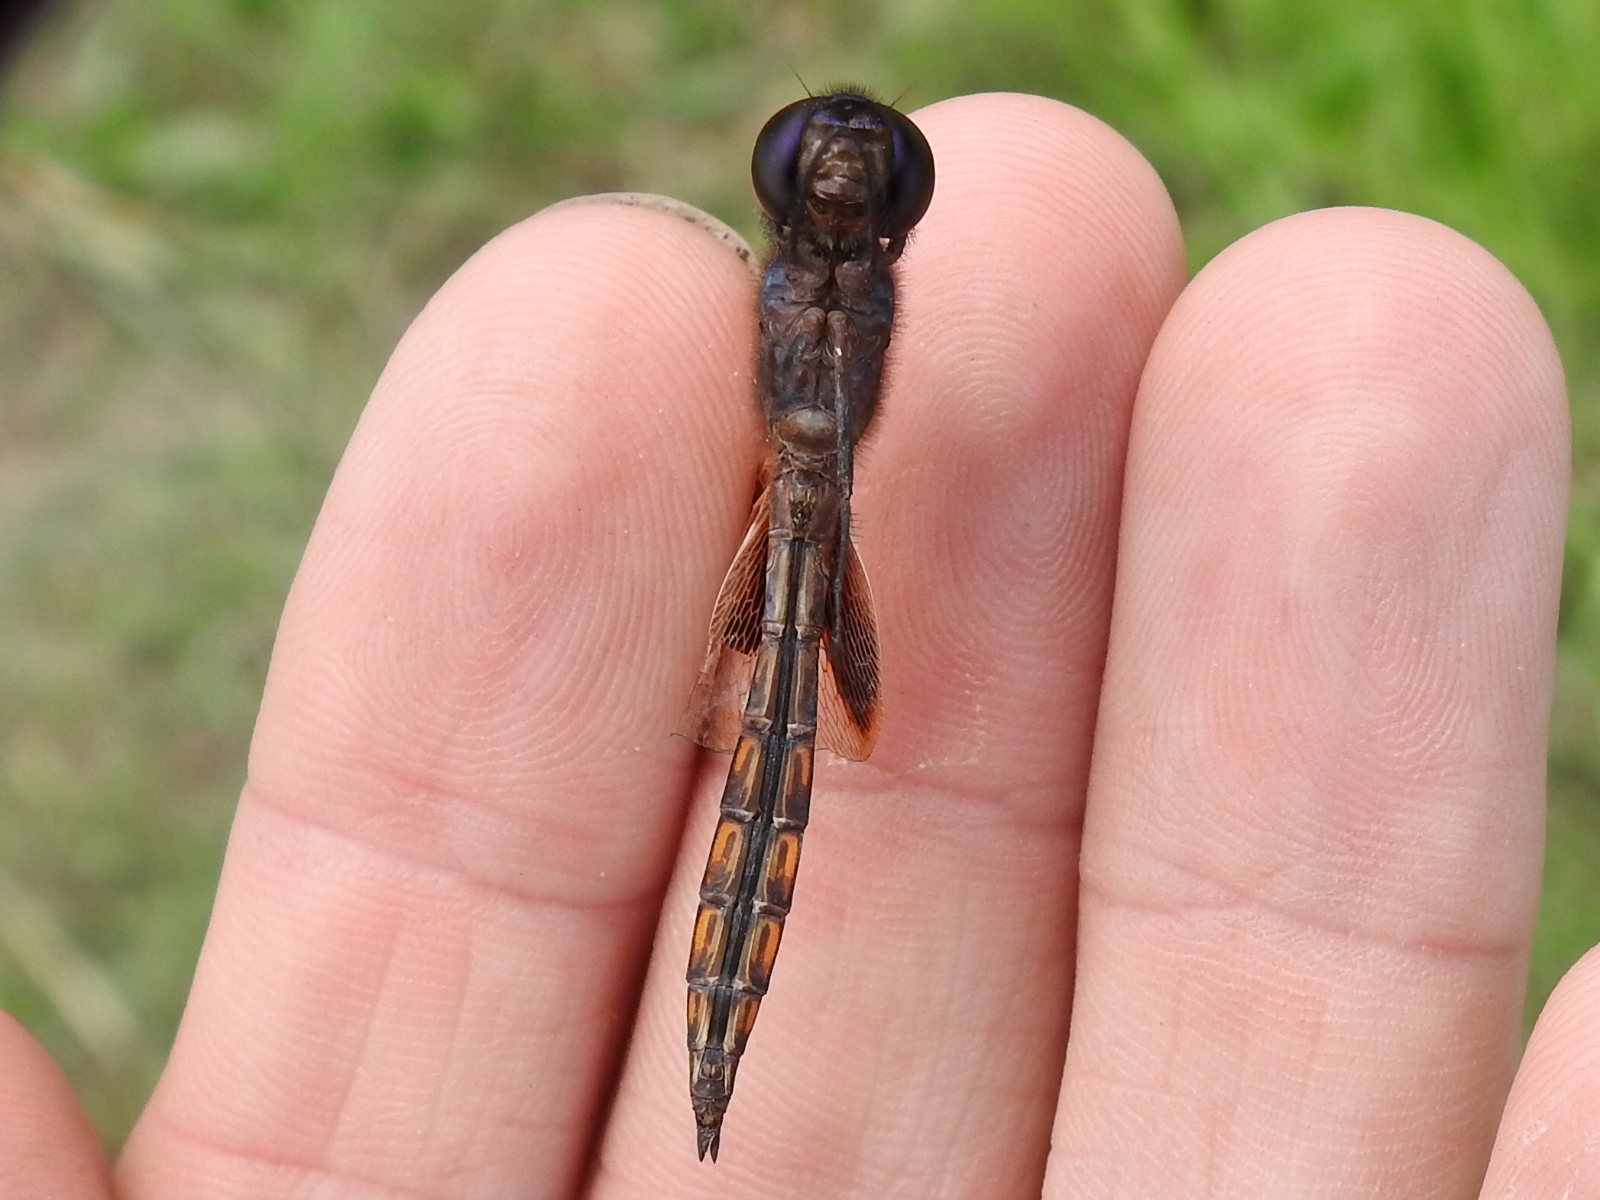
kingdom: Animalia
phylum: Arthropoda
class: Insecta
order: Odonata
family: Libellulidae
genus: Miathyria
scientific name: Miathyria marcella
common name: Hyacinth glider
